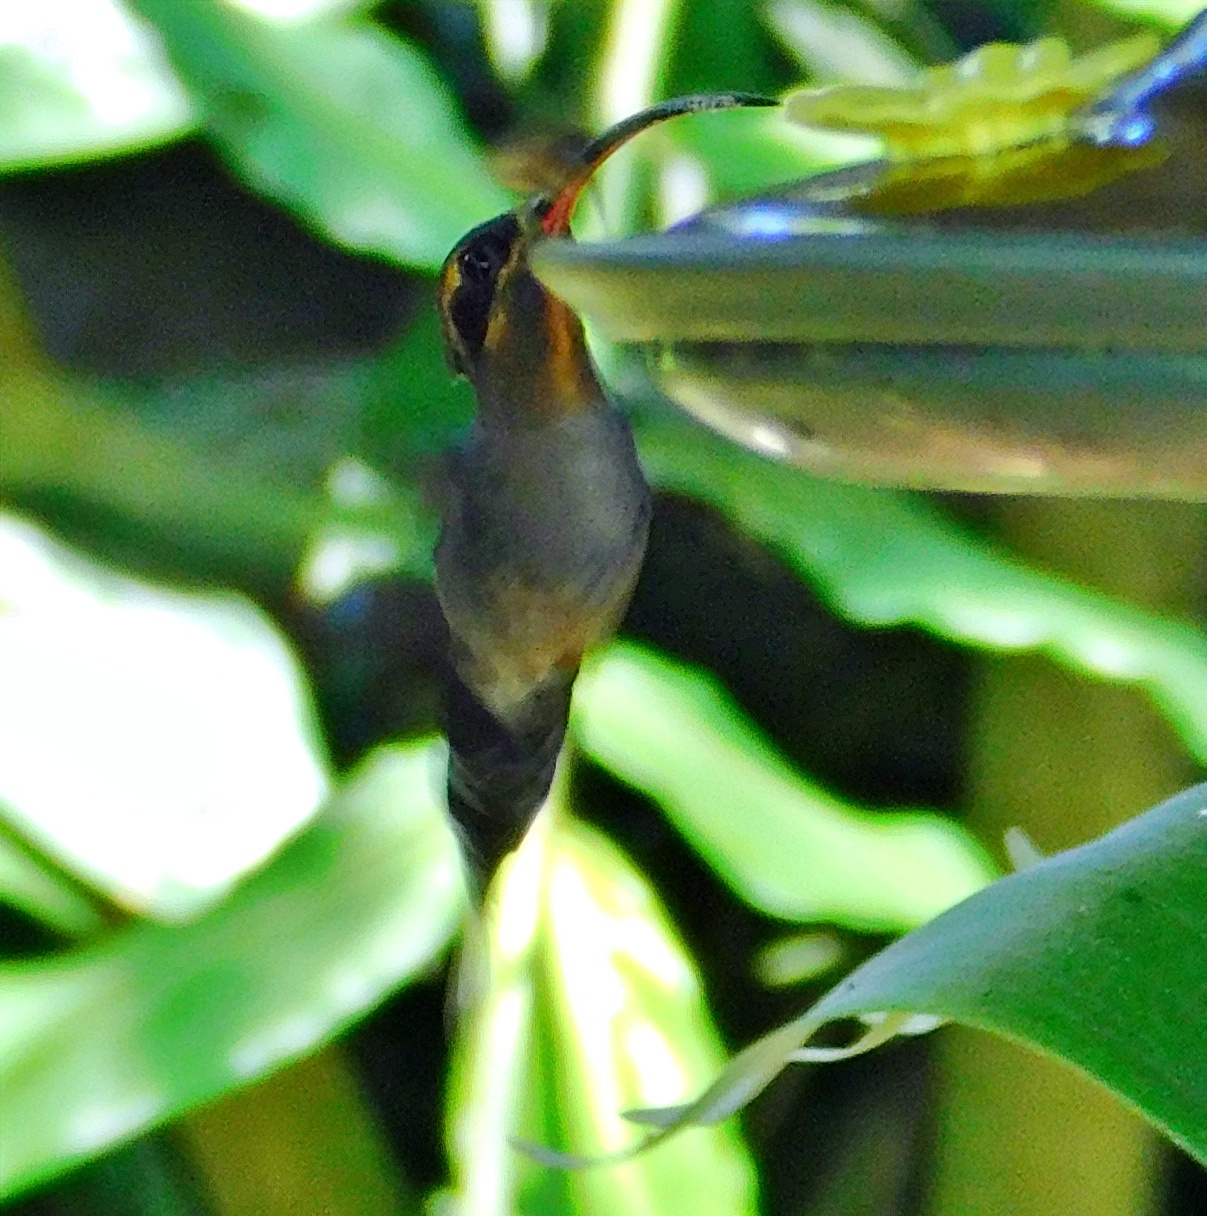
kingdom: Animalia
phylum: Chordata
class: Aves
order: Apodiformes
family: Trochilidae
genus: Phaethornis
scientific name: Phaethornis longirostris
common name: Long-billed hermit
